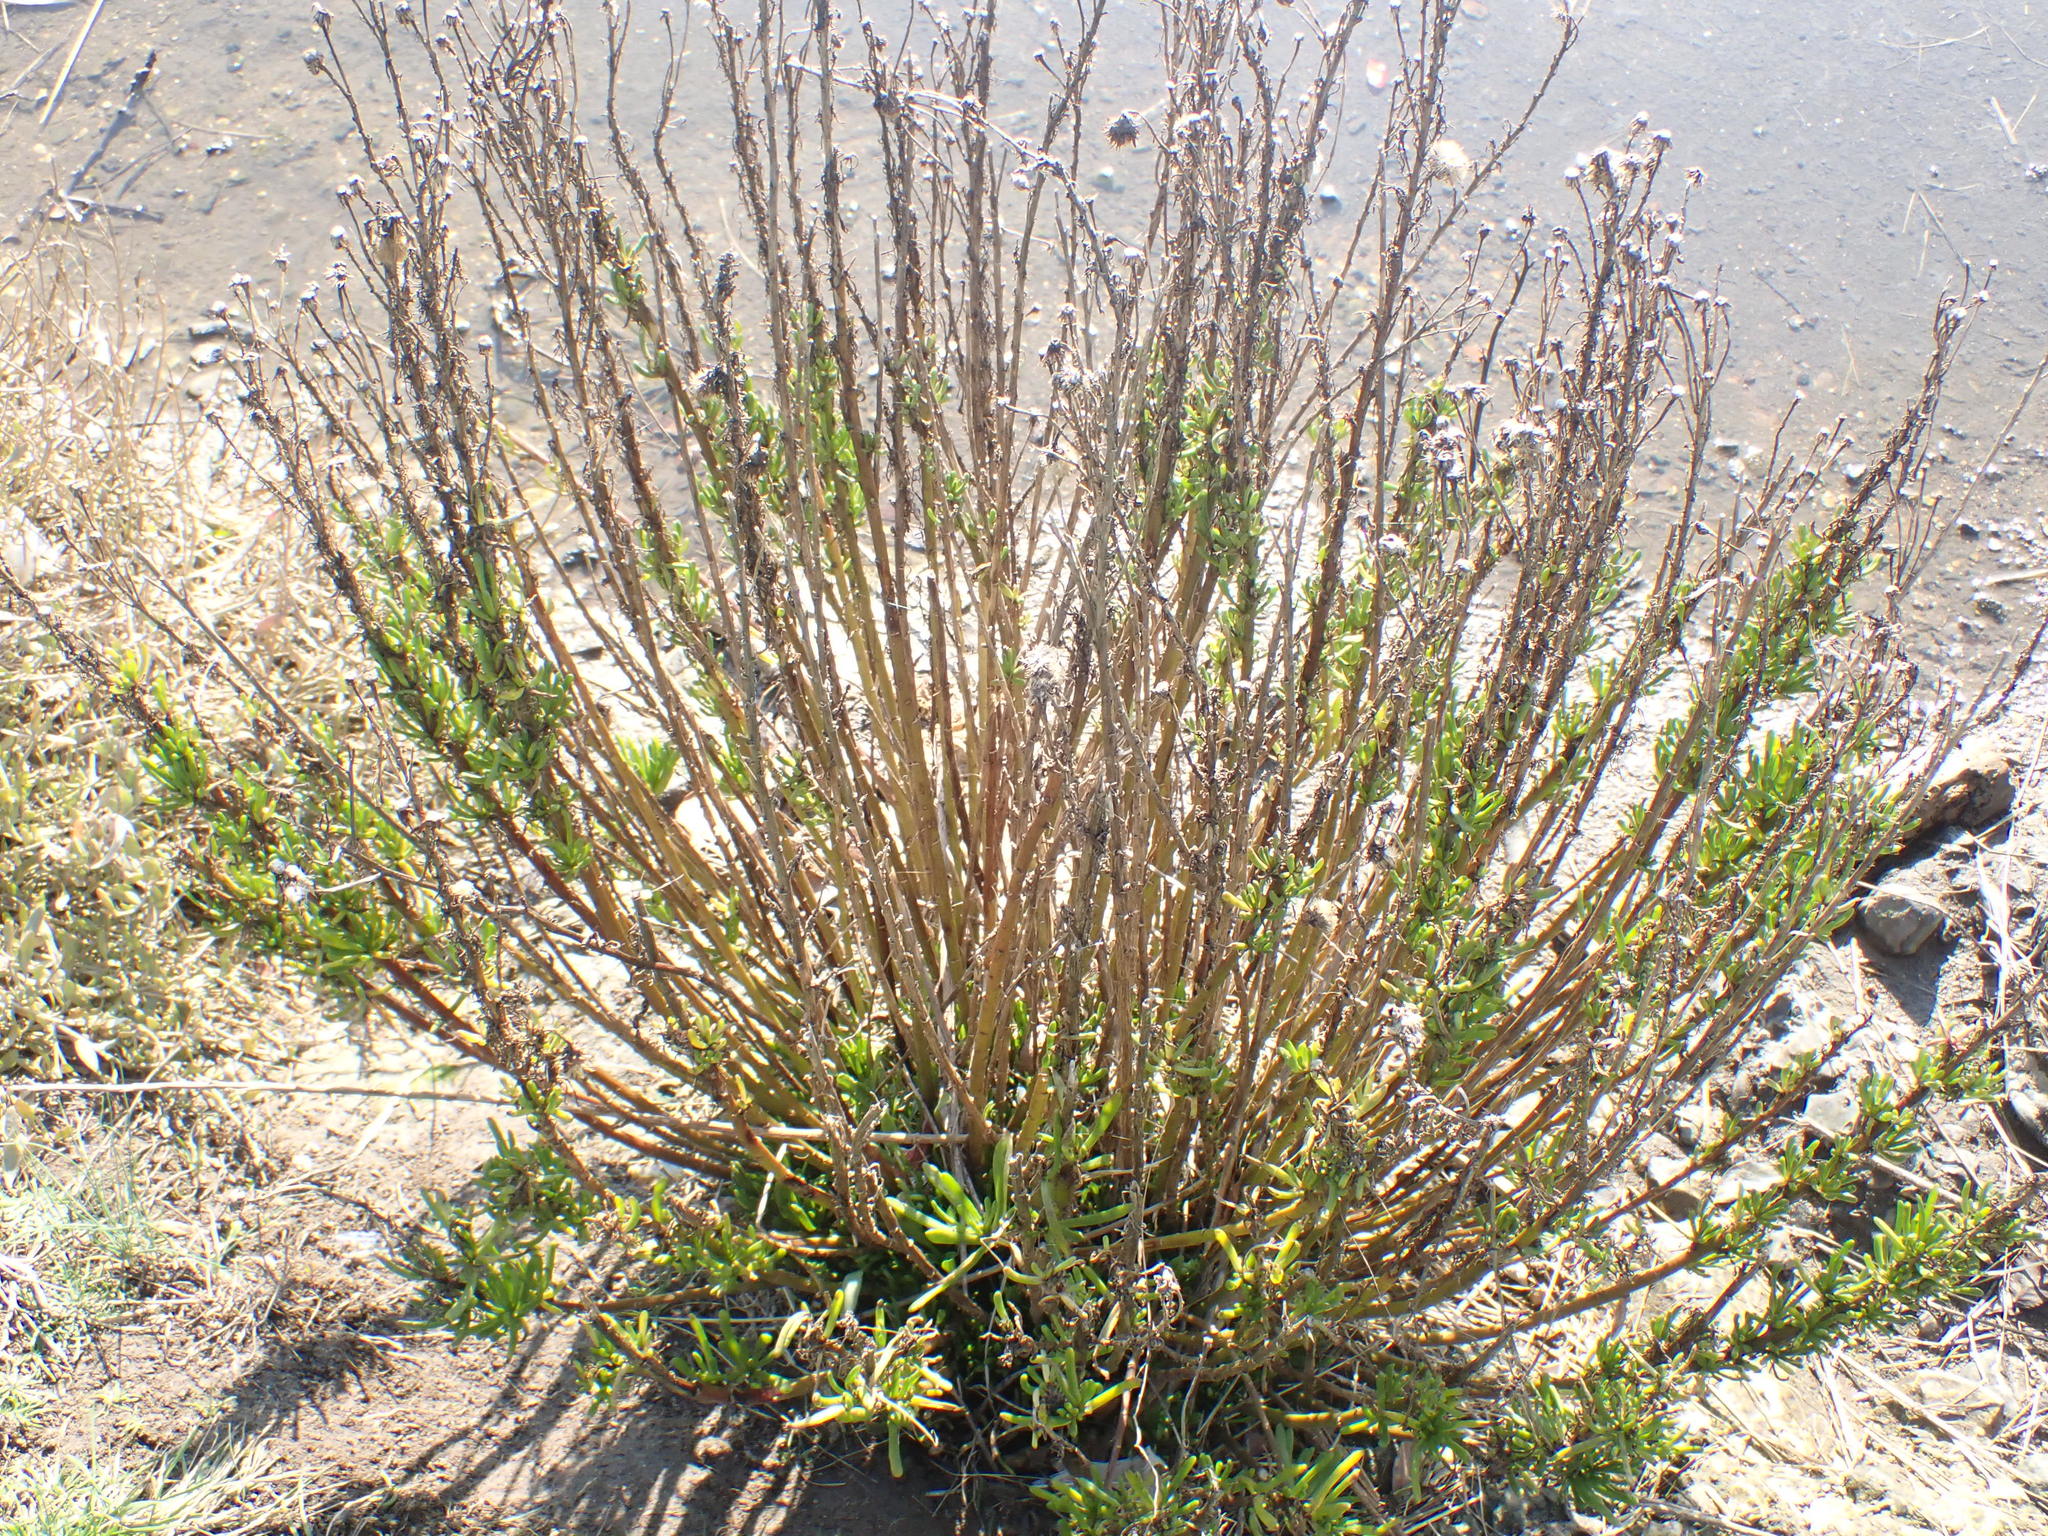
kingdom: Plantae
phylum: Tracheophyta
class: Magnoliopsida
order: Asterales
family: Asteraceae
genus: Limbarda
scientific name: Limbarda crithmoides
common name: Golden samphire
